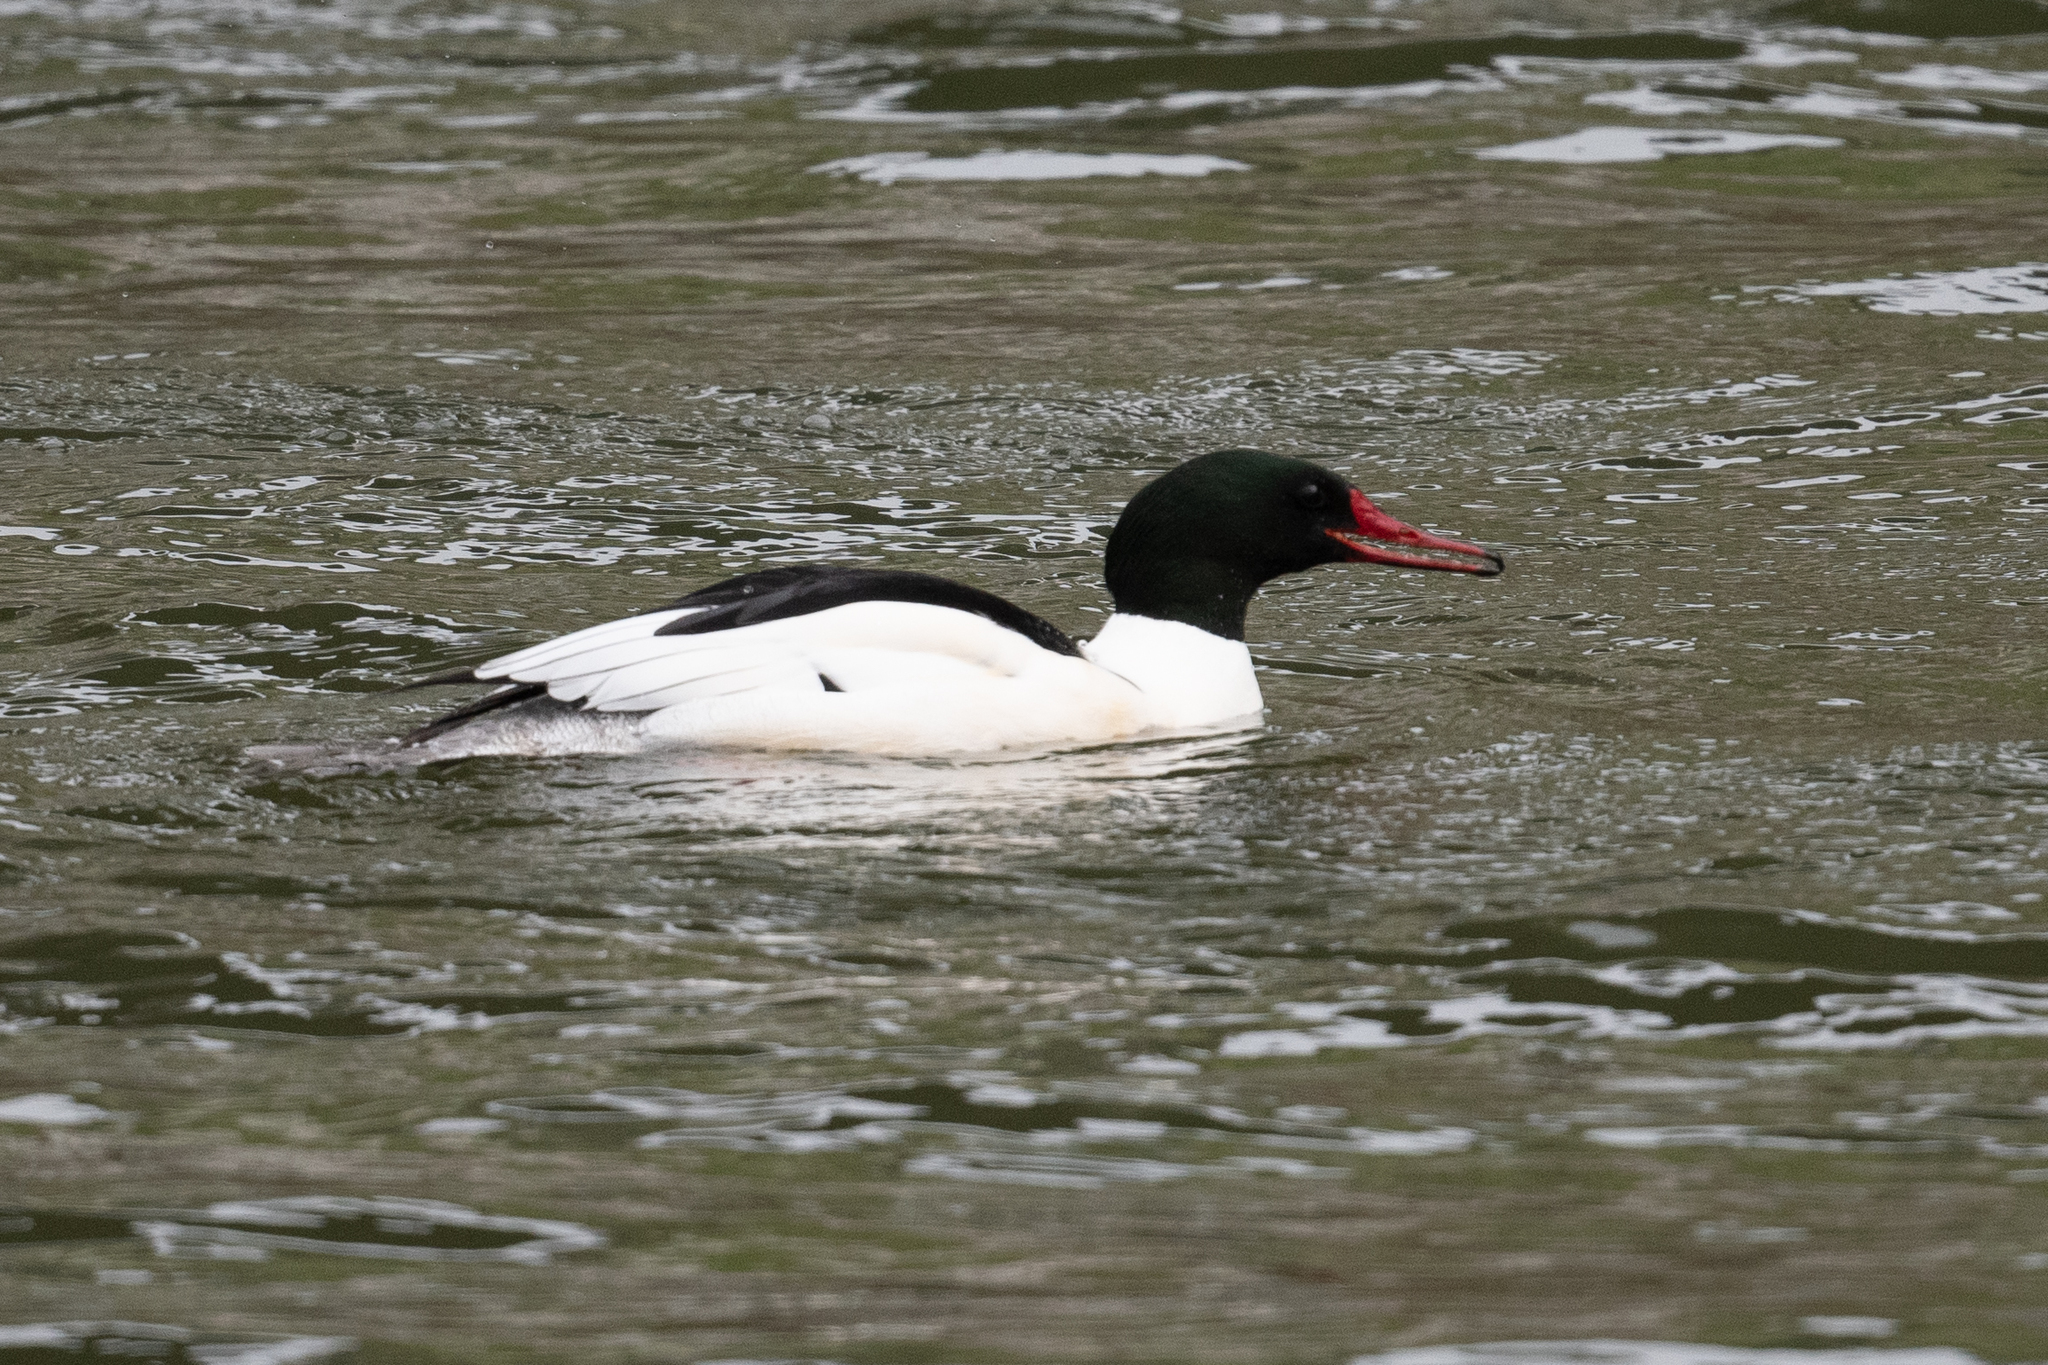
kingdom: Animalia
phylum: Chordata
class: Aves
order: Anseriformes
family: Anatidae
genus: Mergus
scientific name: Mergus merganser
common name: Common merganser
